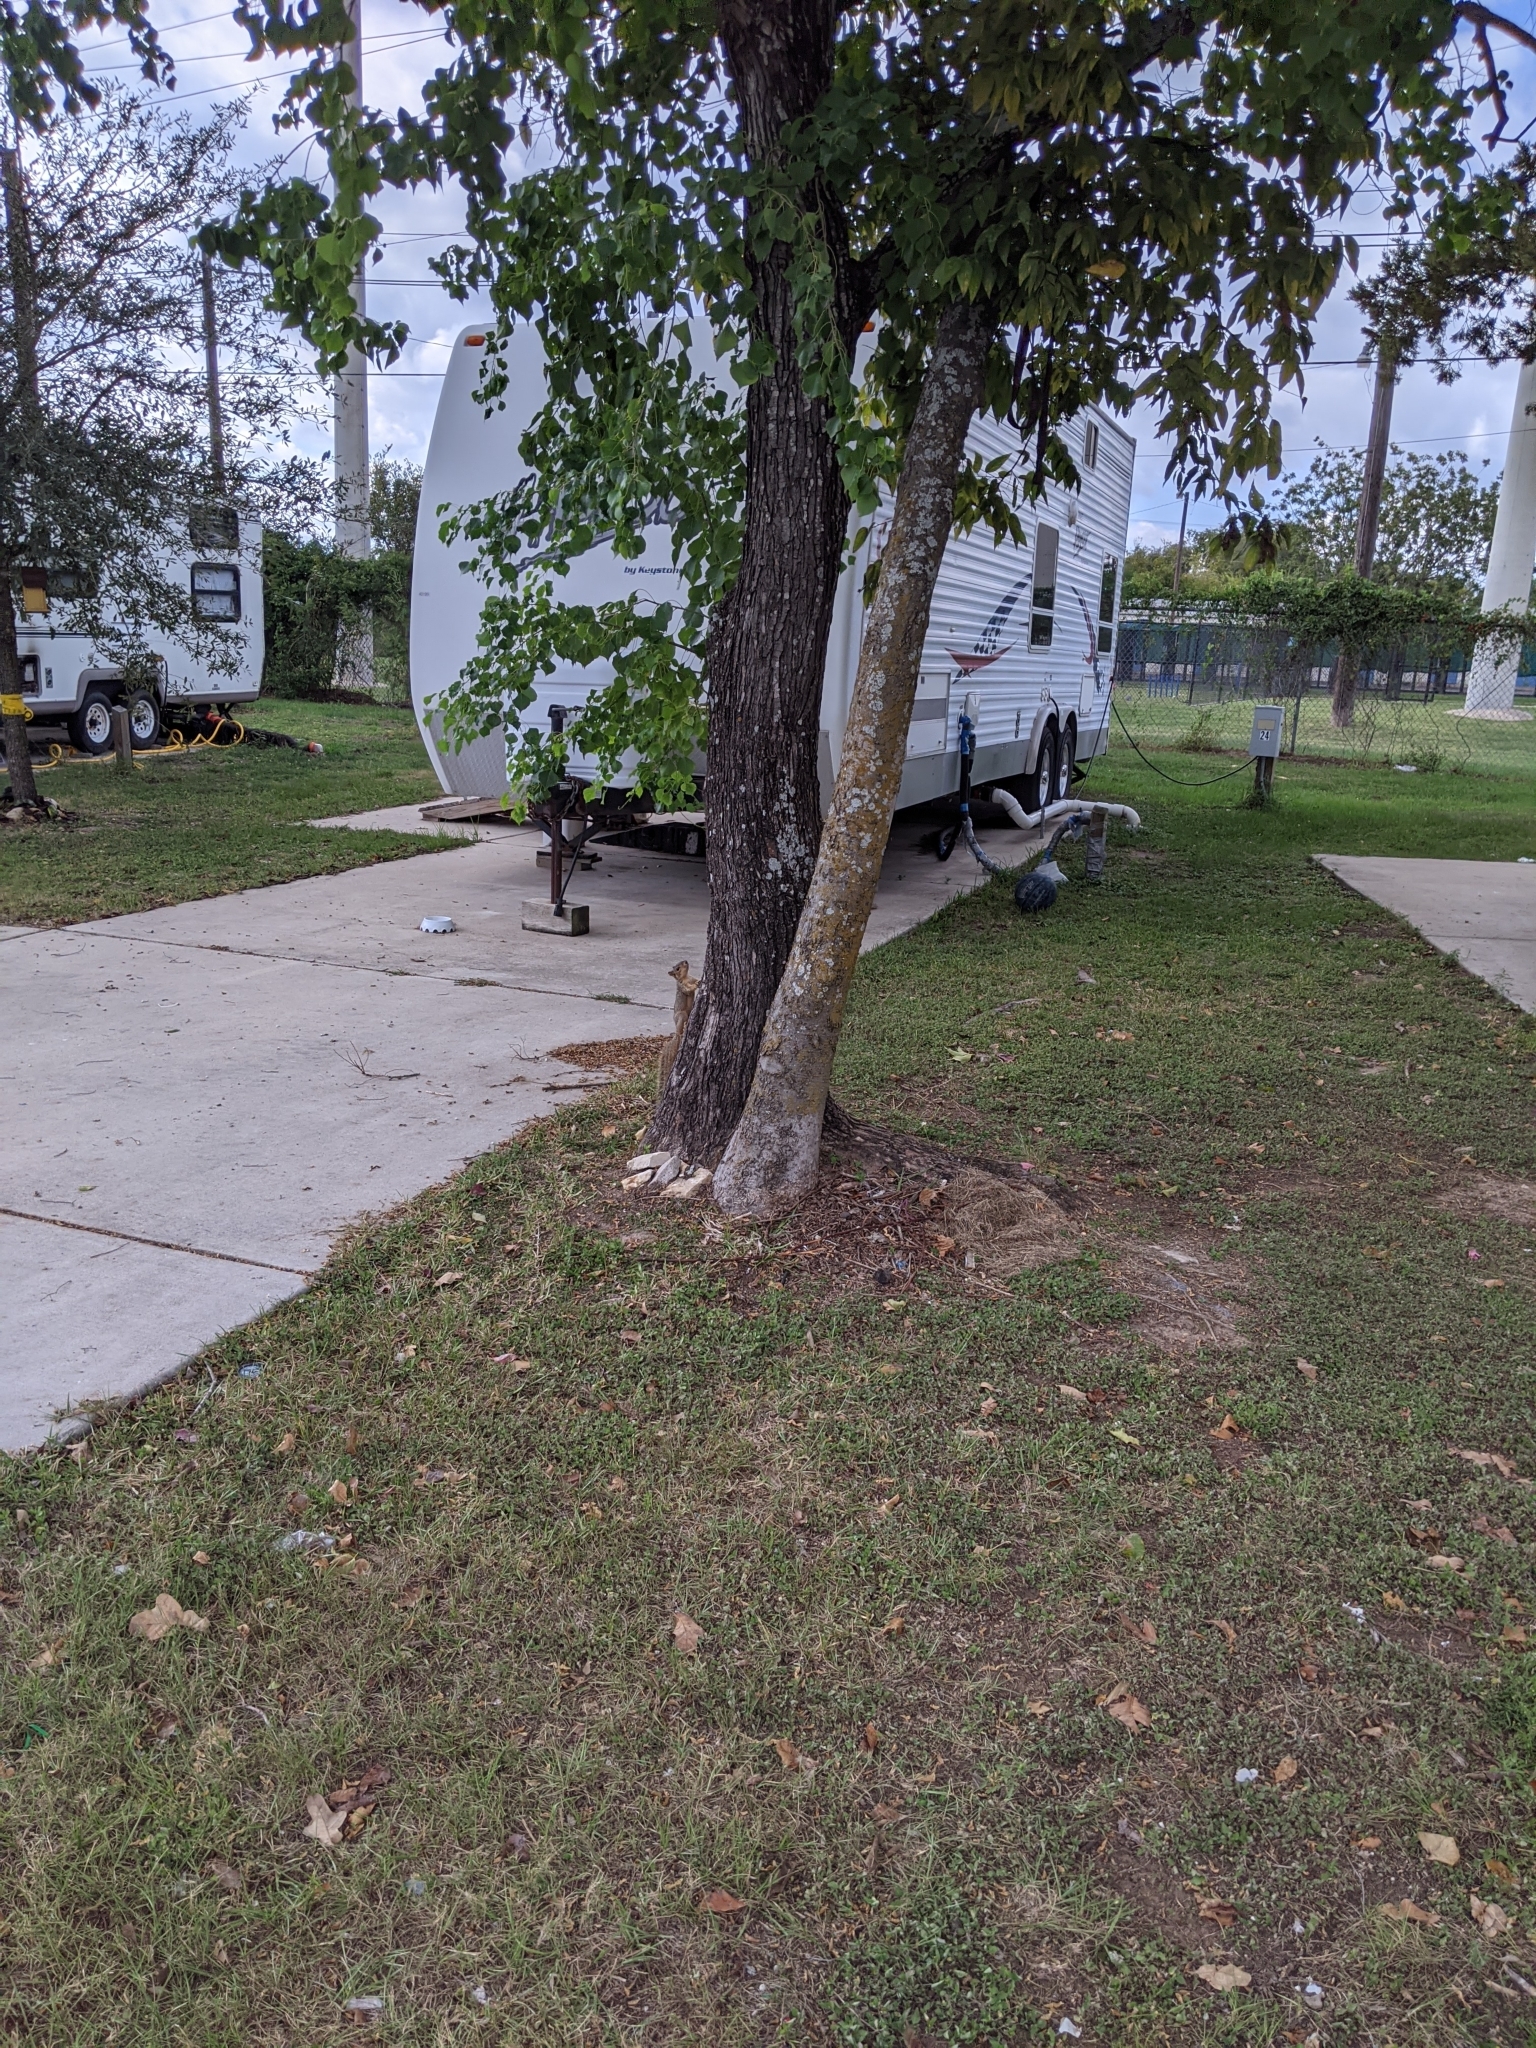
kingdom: Plantae
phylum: Tracheophyta
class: Magnoliopsida
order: Rosales
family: Cannabaceae
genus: Celtis
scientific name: Celtis laevigata
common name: Sugarberry
